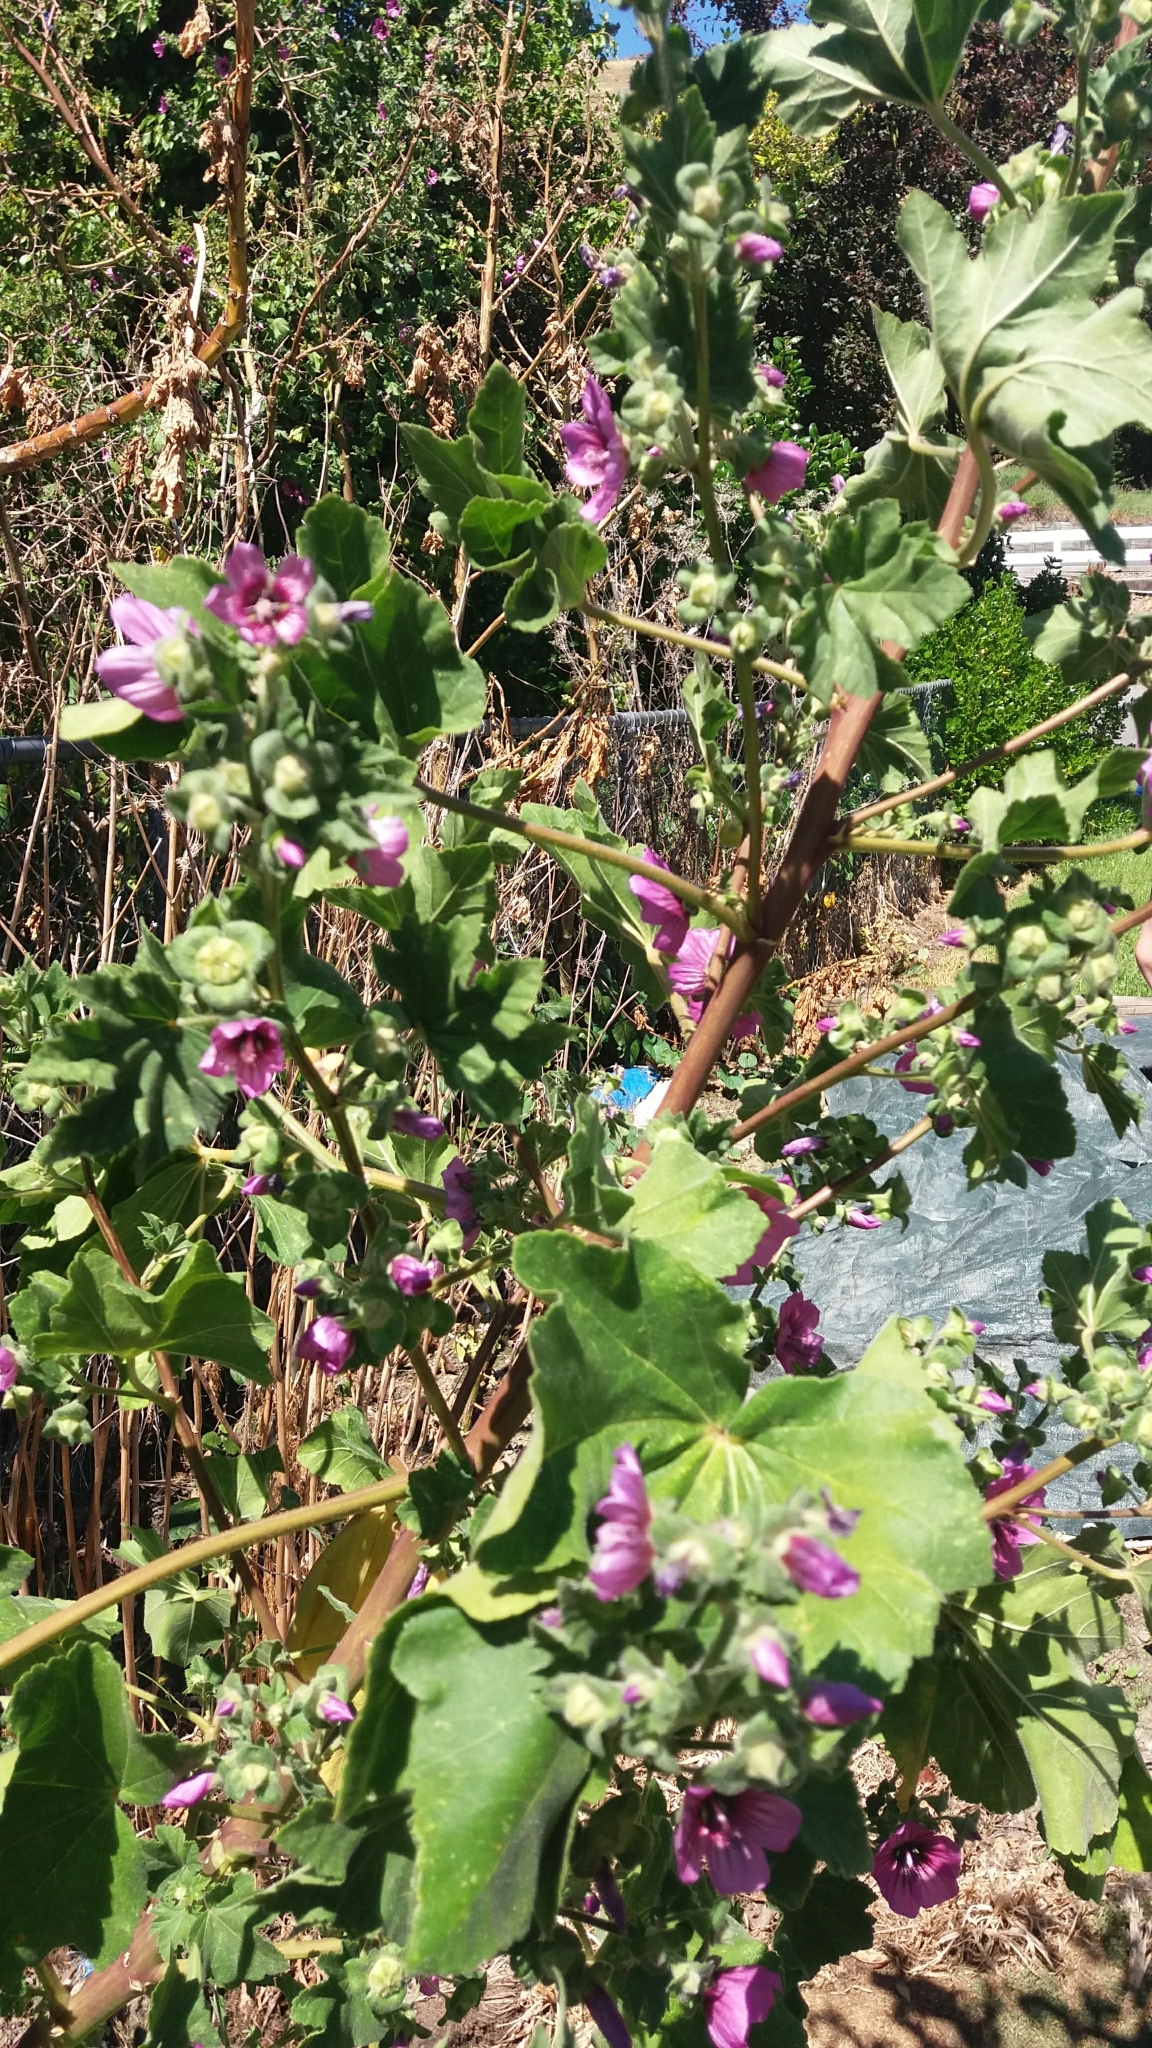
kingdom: Plantae
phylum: Tracheophyta
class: Magnoliopsida
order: Malvales
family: Malvaceae
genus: Malva
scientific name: Malva arborea
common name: Tree mallow
